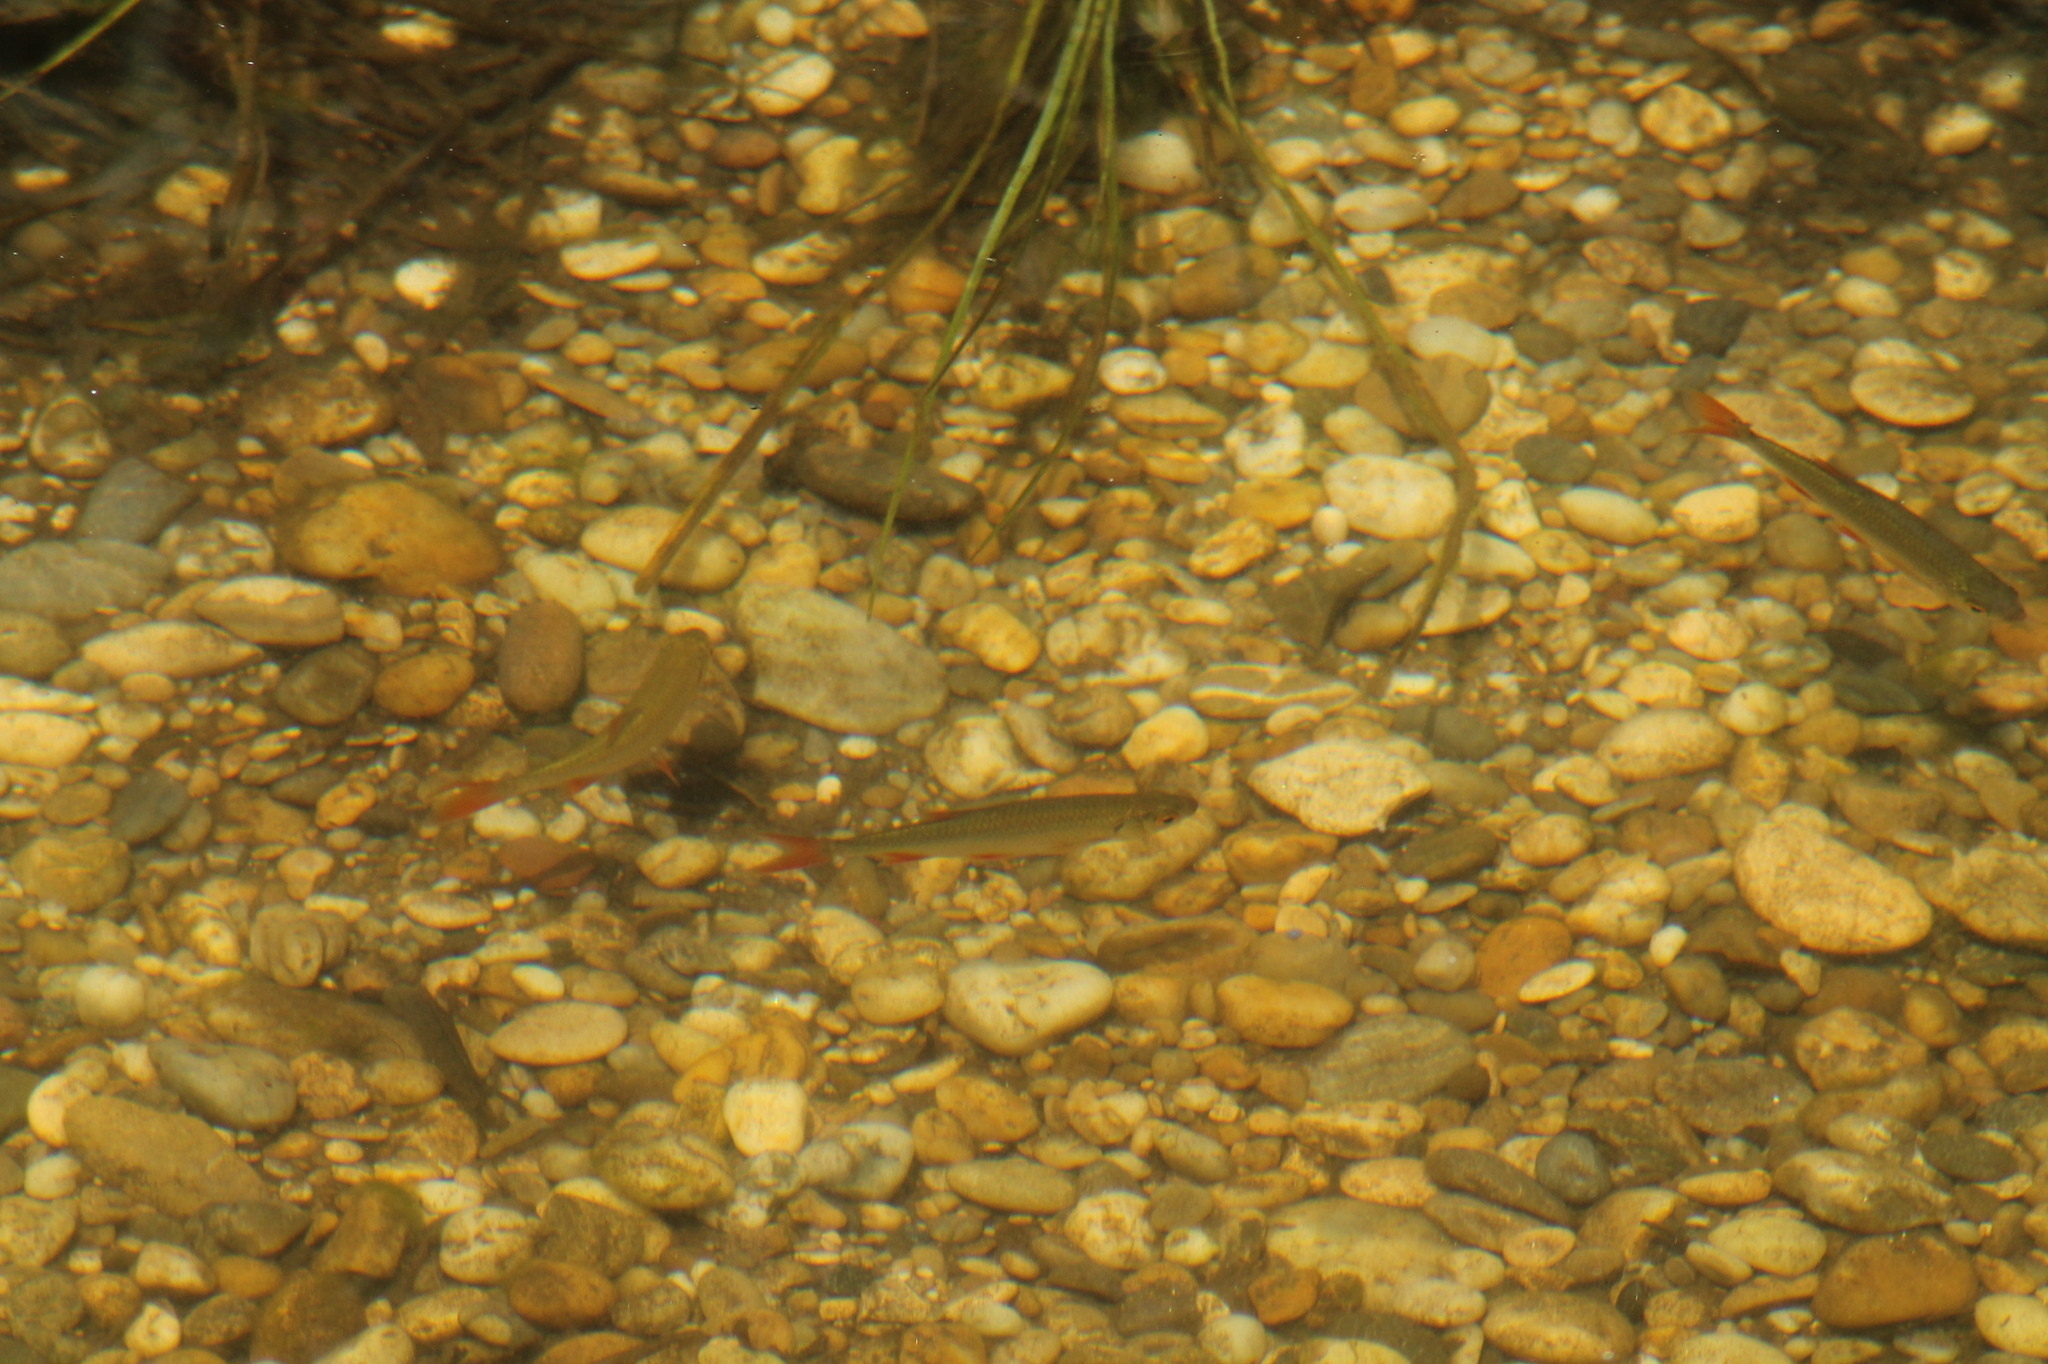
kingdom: Animalia
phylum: Chordata
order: Cypriniformes
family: Cyprinidae
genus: Scardinius
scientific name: Scardinius erythrophthalmus
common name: Rudd
